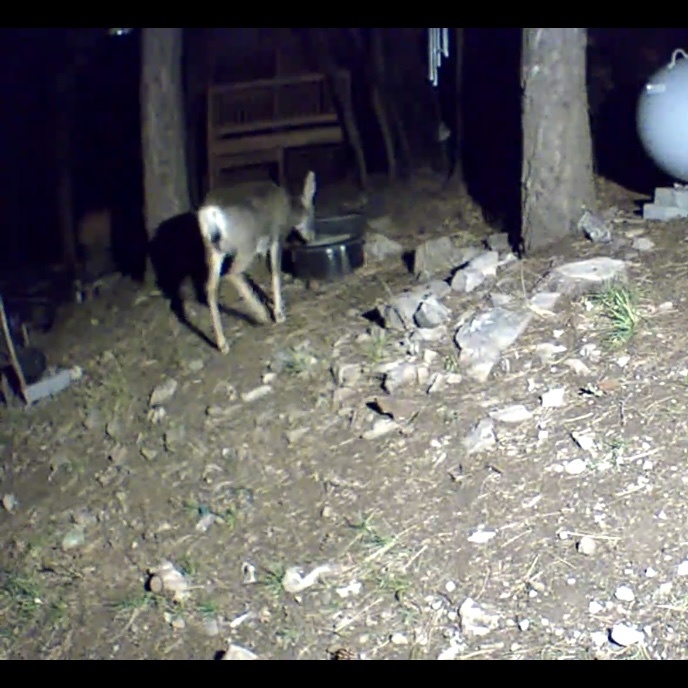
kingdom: Animalia
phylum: Chordata
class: Mammalia
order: Artiodactyla
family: Cervidae
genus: Odocoileus
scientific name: Odocoileus hemionus
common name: Mule deer
